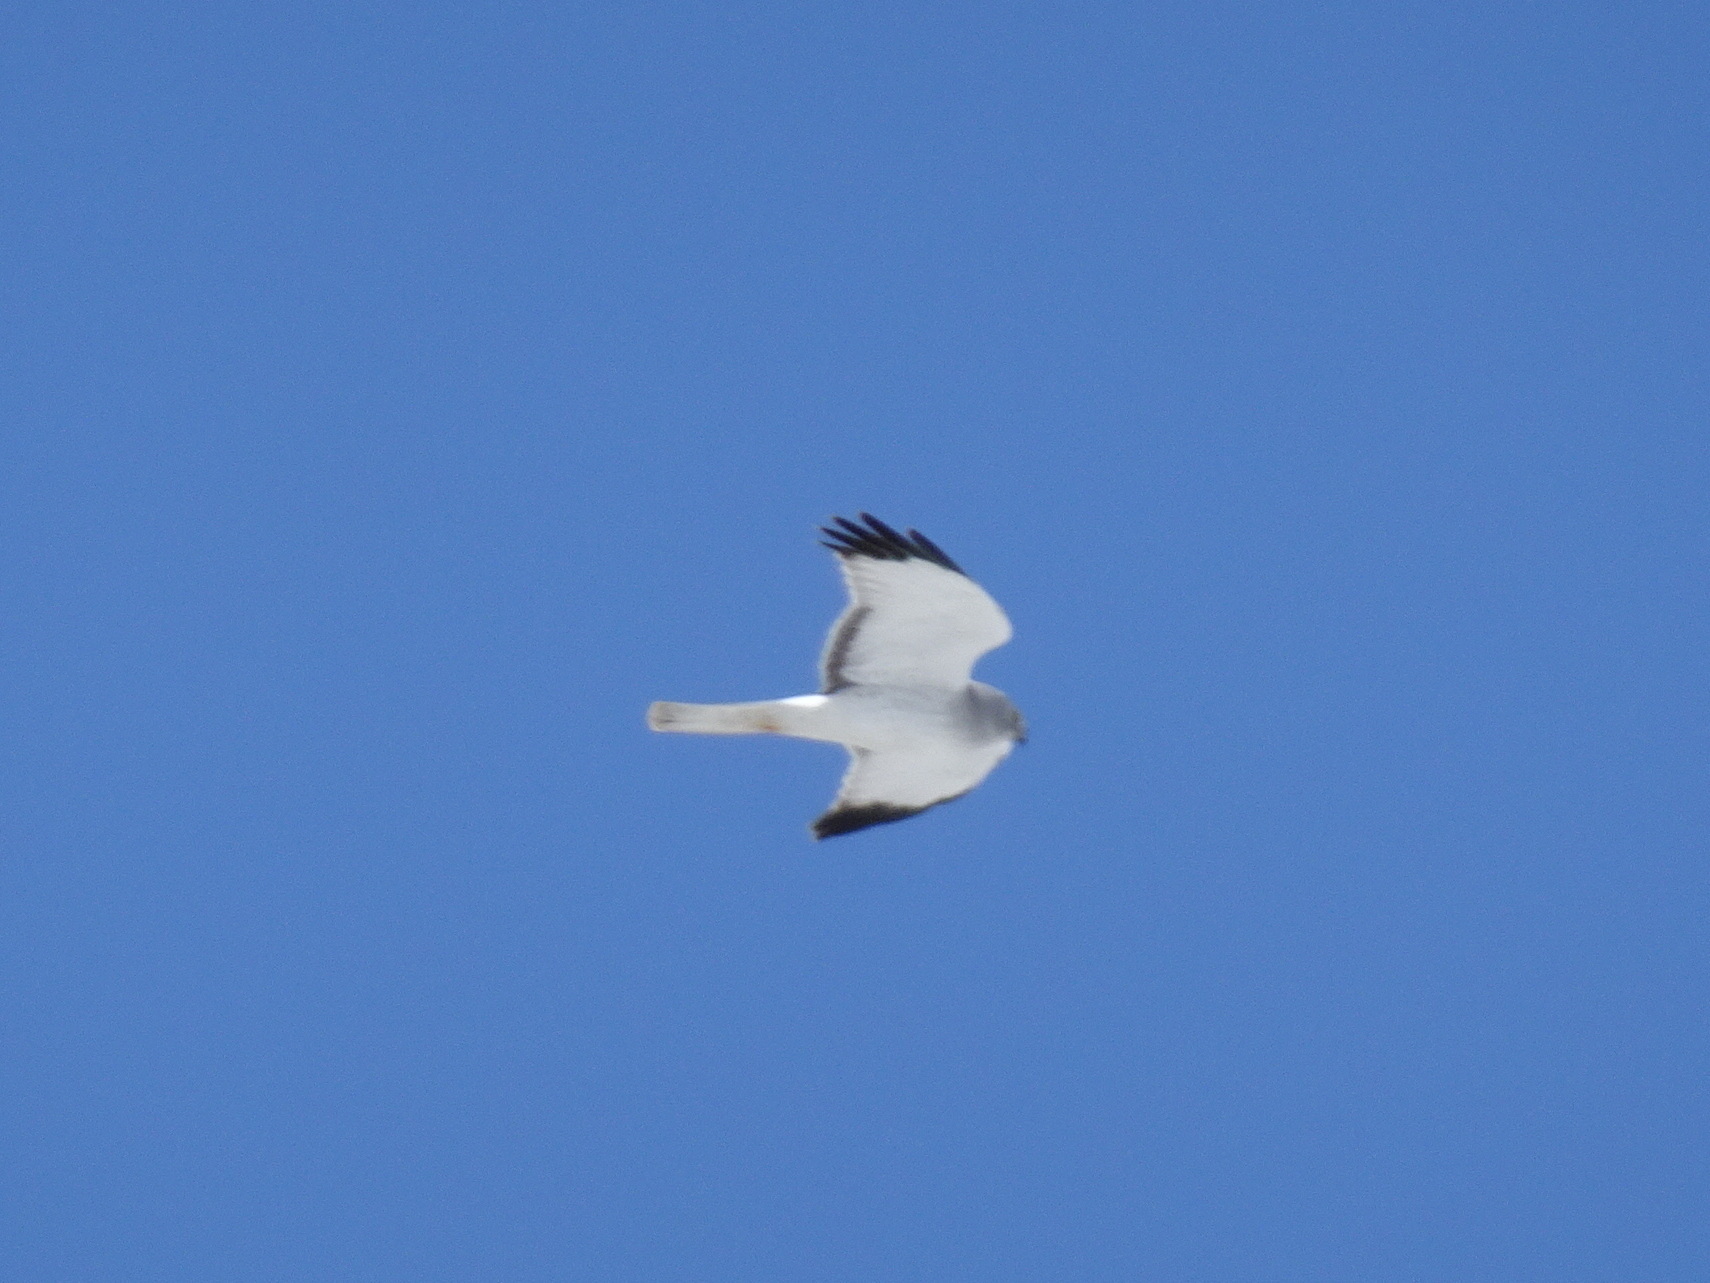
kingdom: Animalia
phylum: Chordata
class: Aves
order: Accipitriformes
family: Accipitridae
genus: Circus
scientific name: Circus cyaneus
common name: Hen harrier
